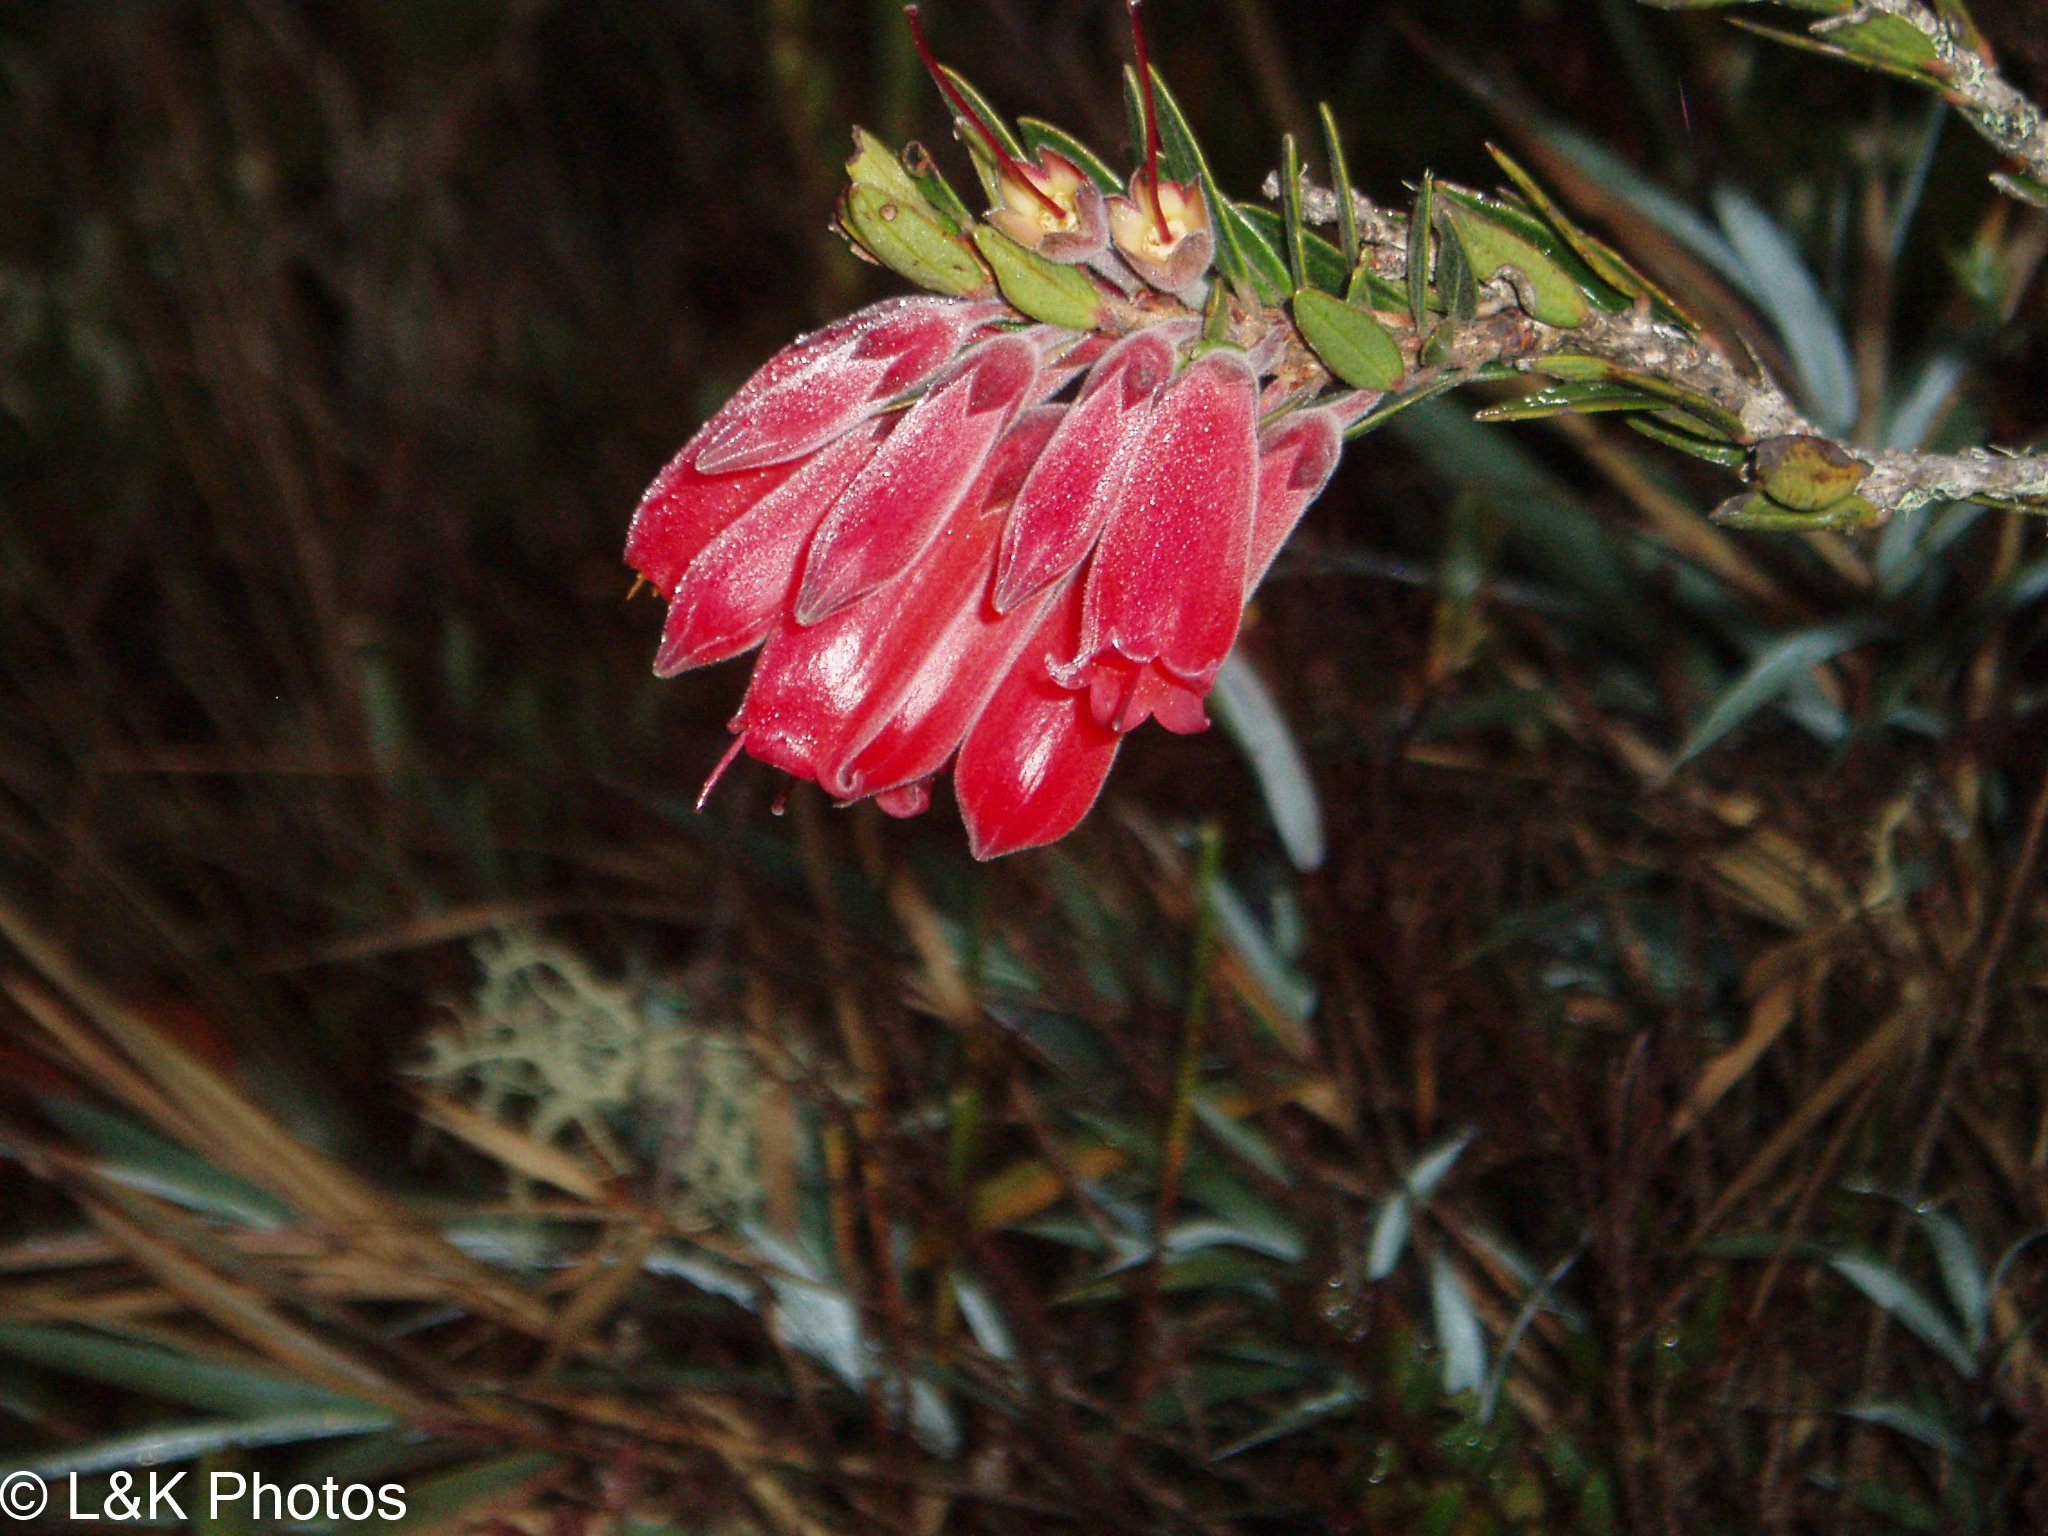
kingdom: Plantae
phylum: Tracheophyta
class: Magnoliopsida
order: Ericales
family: Ericaceae
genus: Demosthenesia
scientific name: Demosthenesia spectabilis
